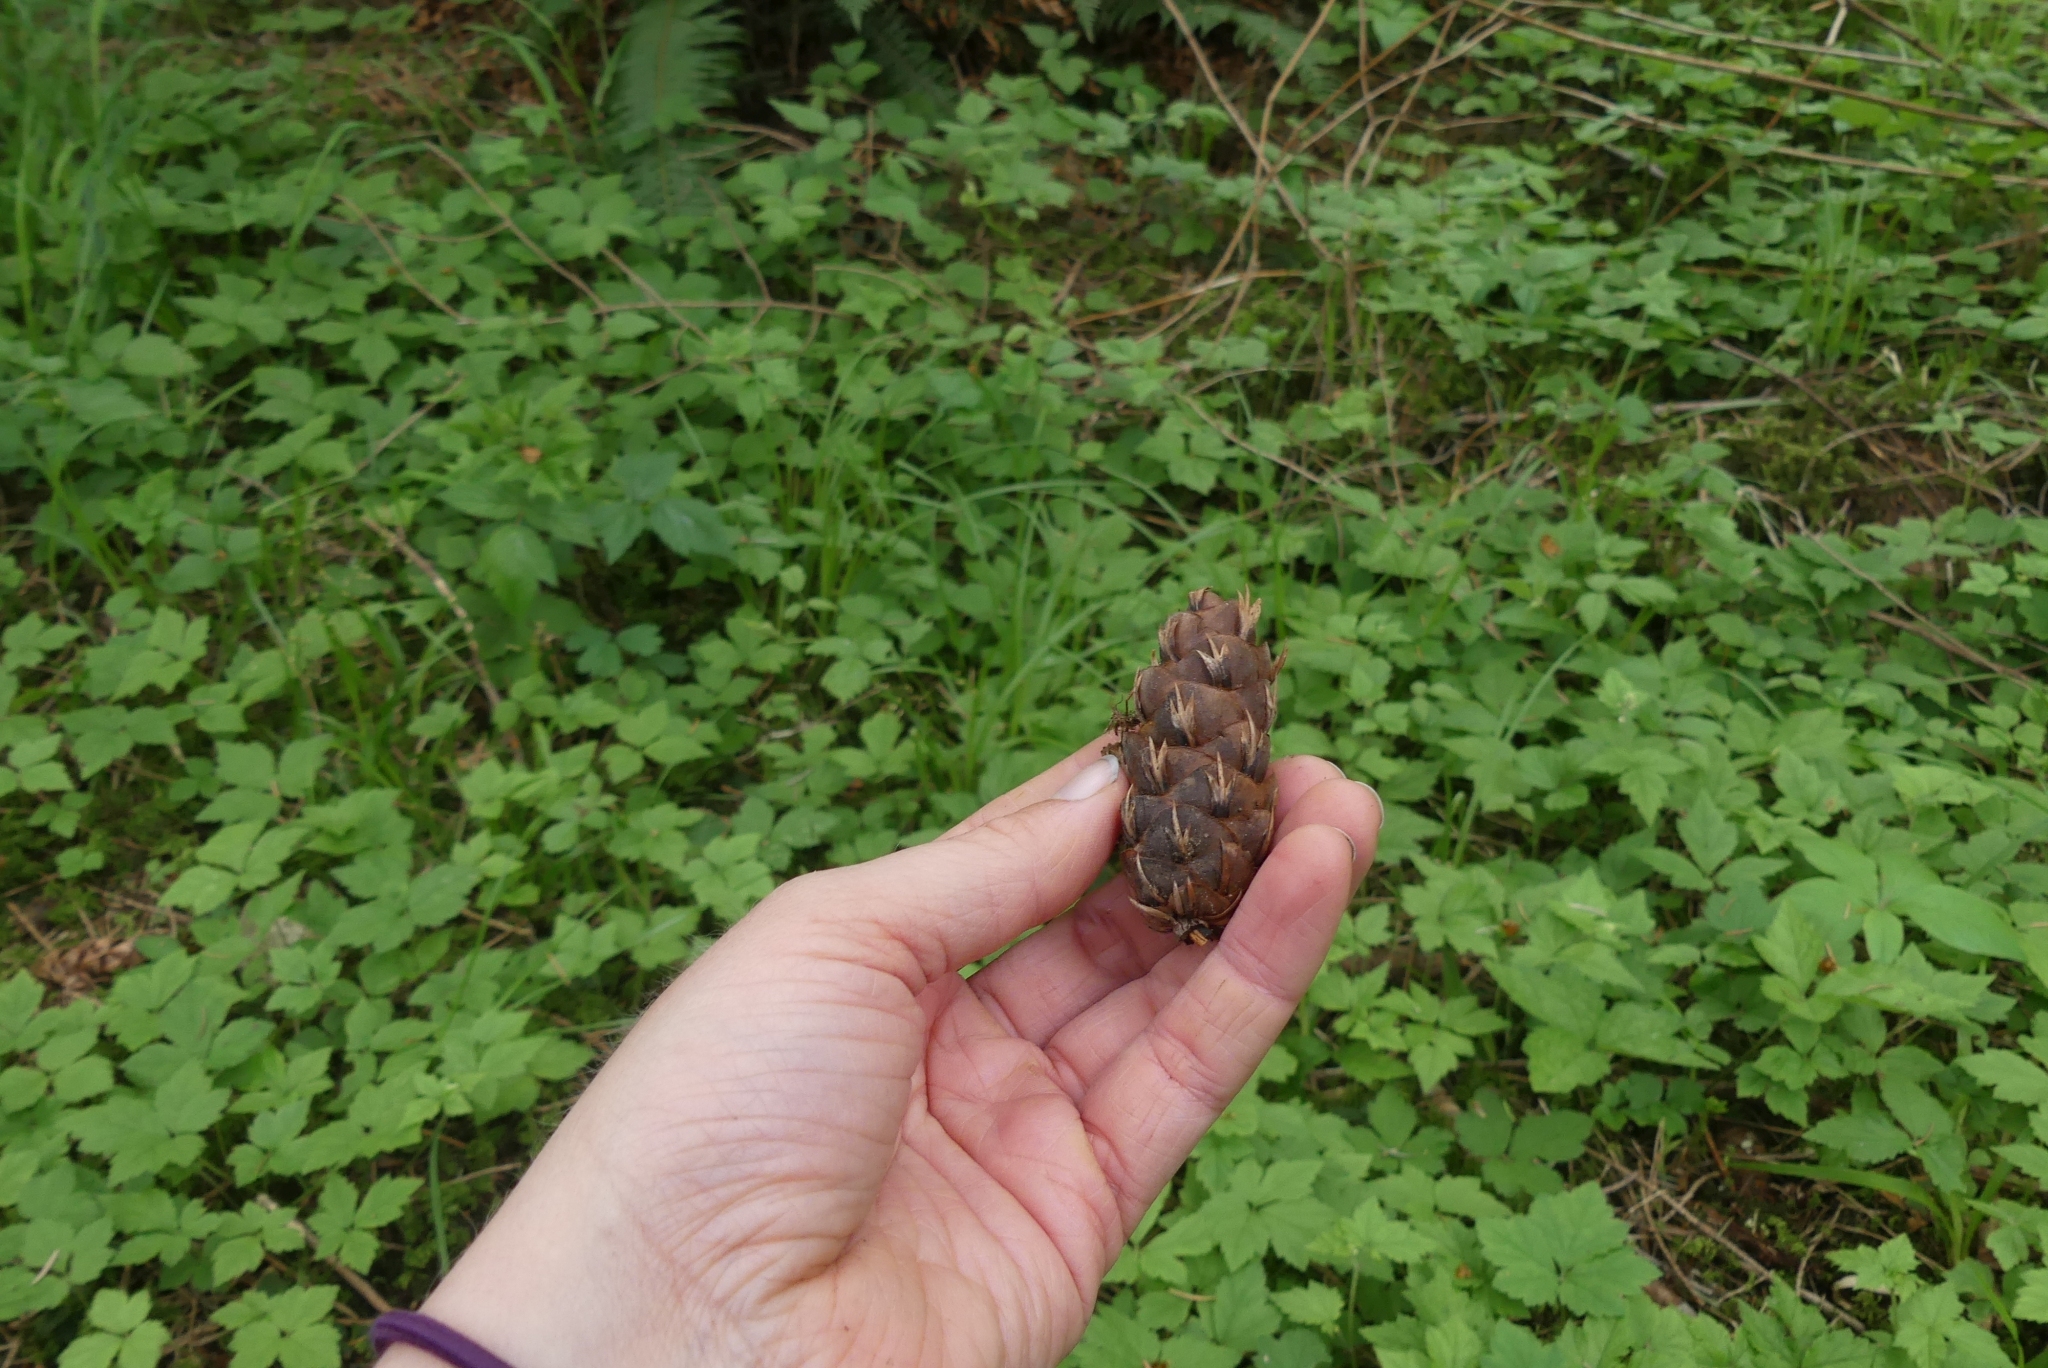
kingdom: Plantae
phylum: Tracheophyta
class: Pinopsida
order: Pinales
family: Pinaceae
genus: Pseudotsuga
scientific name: Pseudotsuga menziesii
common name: Douglas fir
